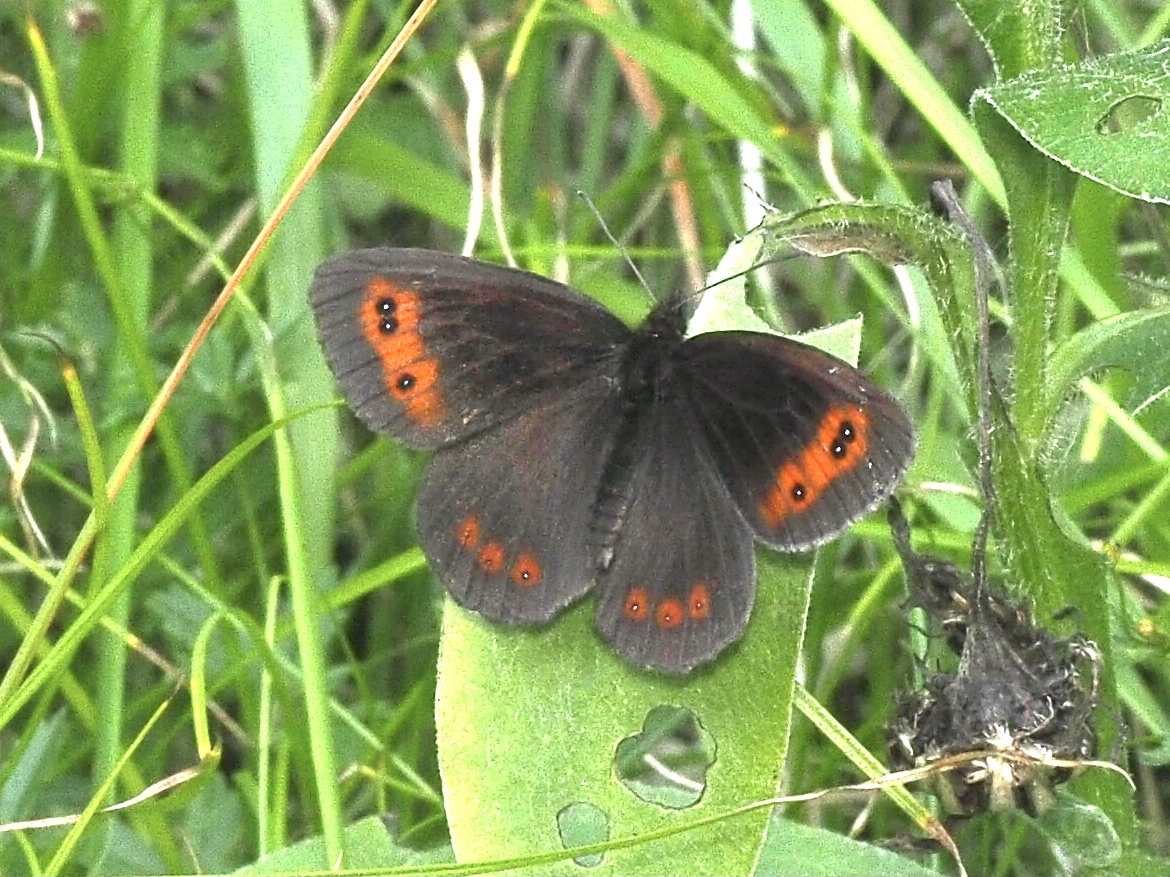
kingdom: Animalia
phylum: Arthropoda
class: Insecta
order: Lepidoptera
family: Nymphalidae
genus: Erebia
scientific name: Erebia aethiops
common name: Scotch argus
